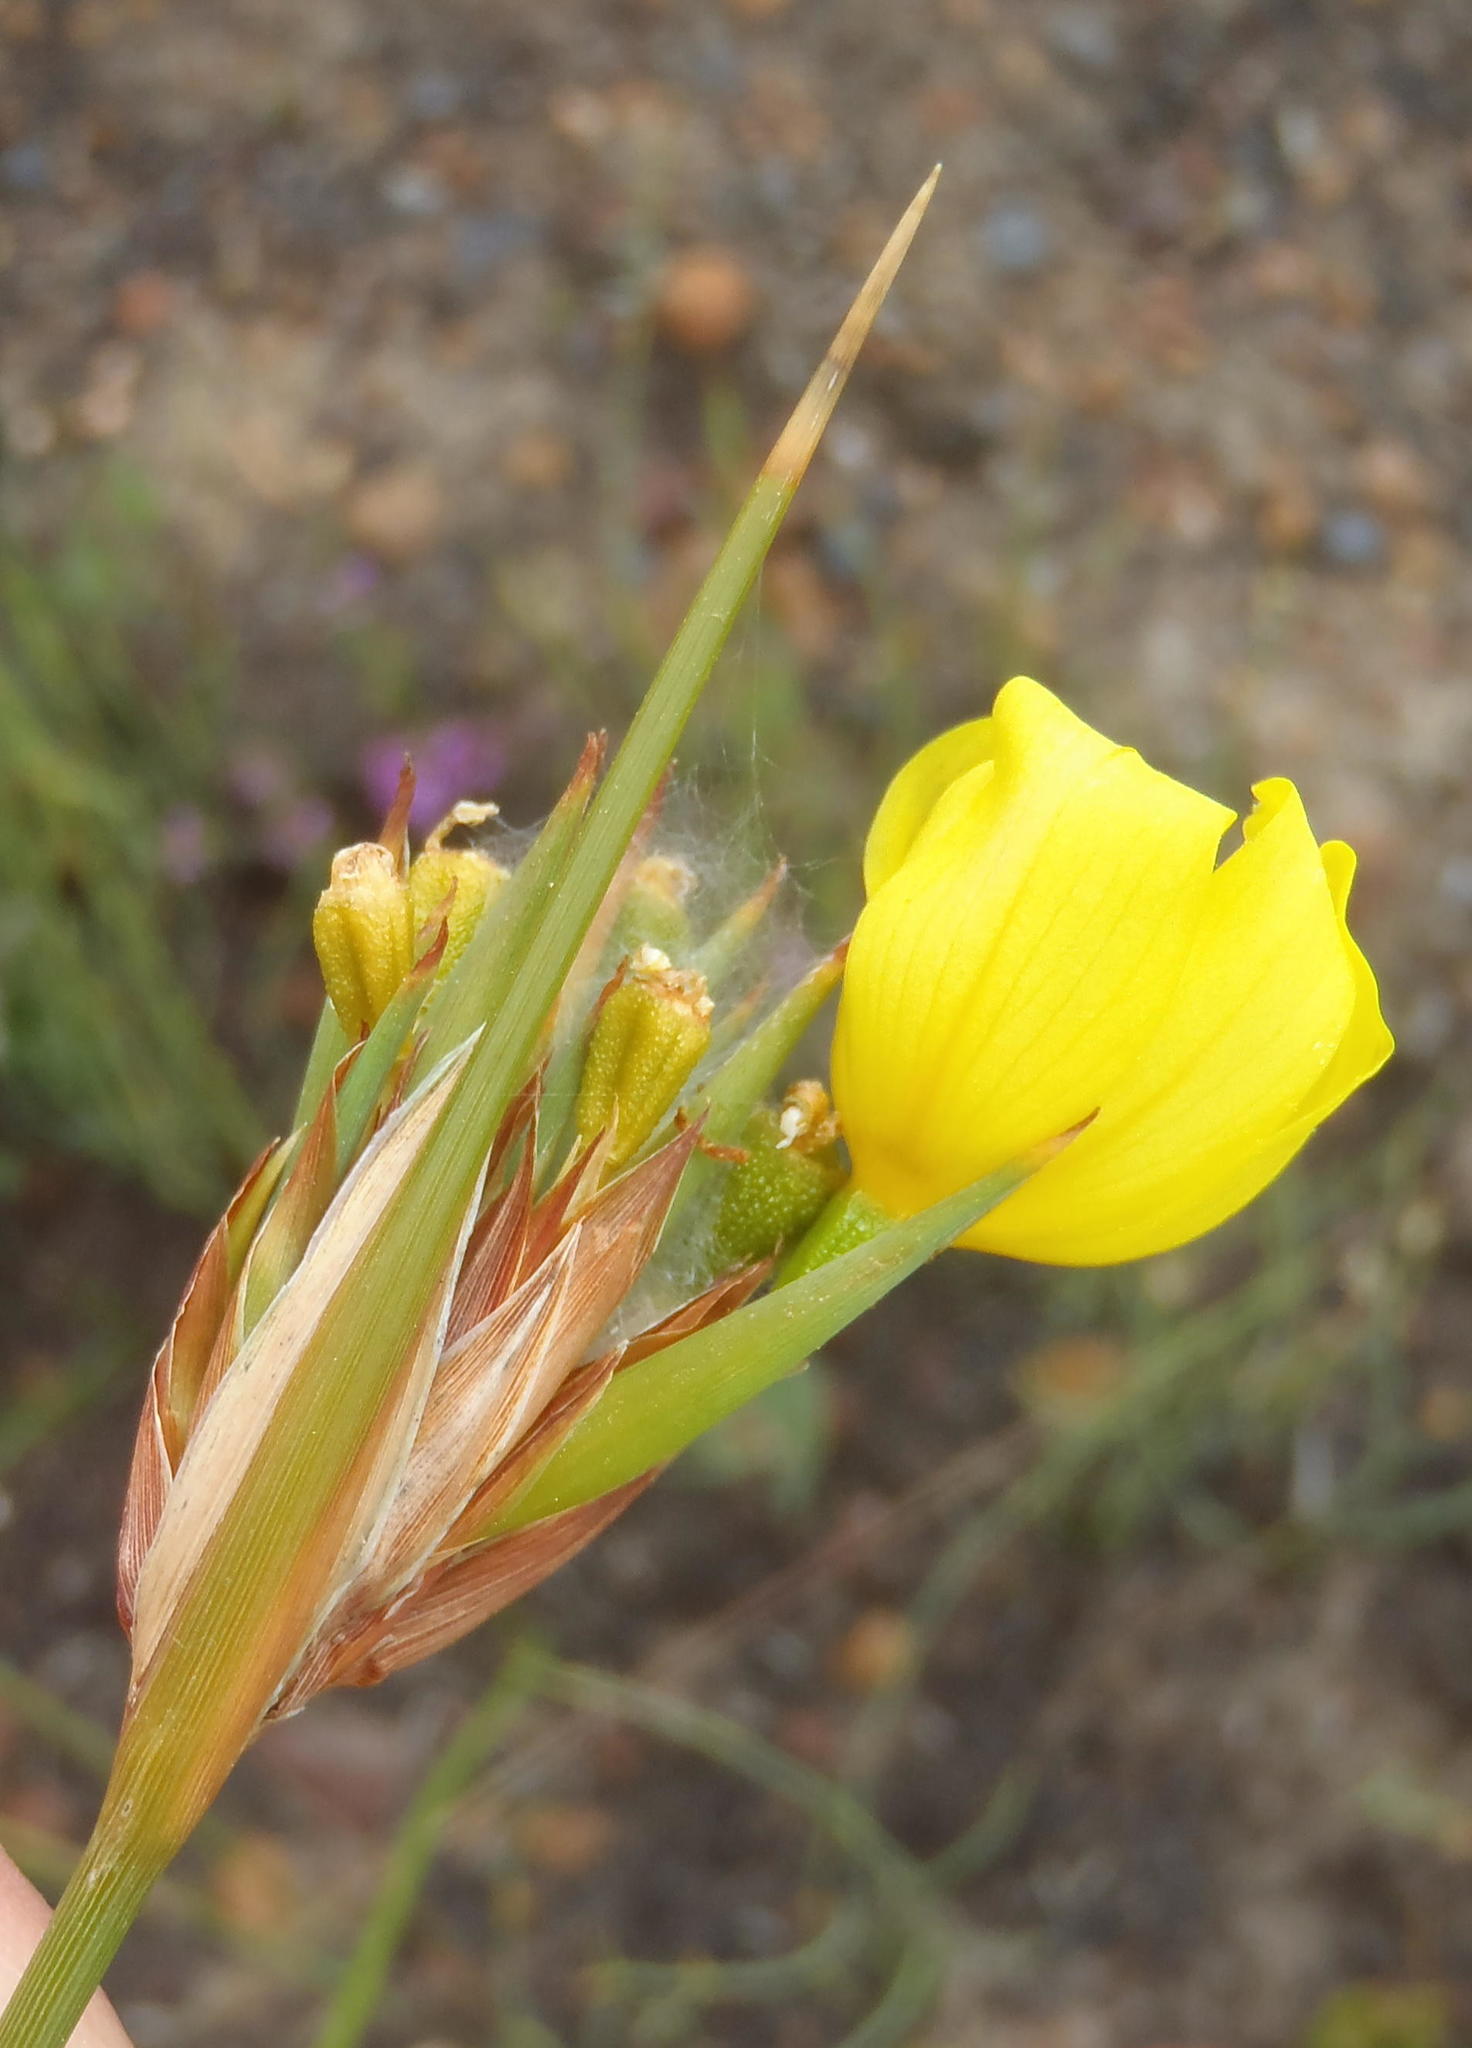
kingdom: Plantae
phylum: Tracheophyta
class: Liliopsida
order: Asparagales
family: Iridaceae
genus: Bobartia
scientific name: Bobartia aphylla
